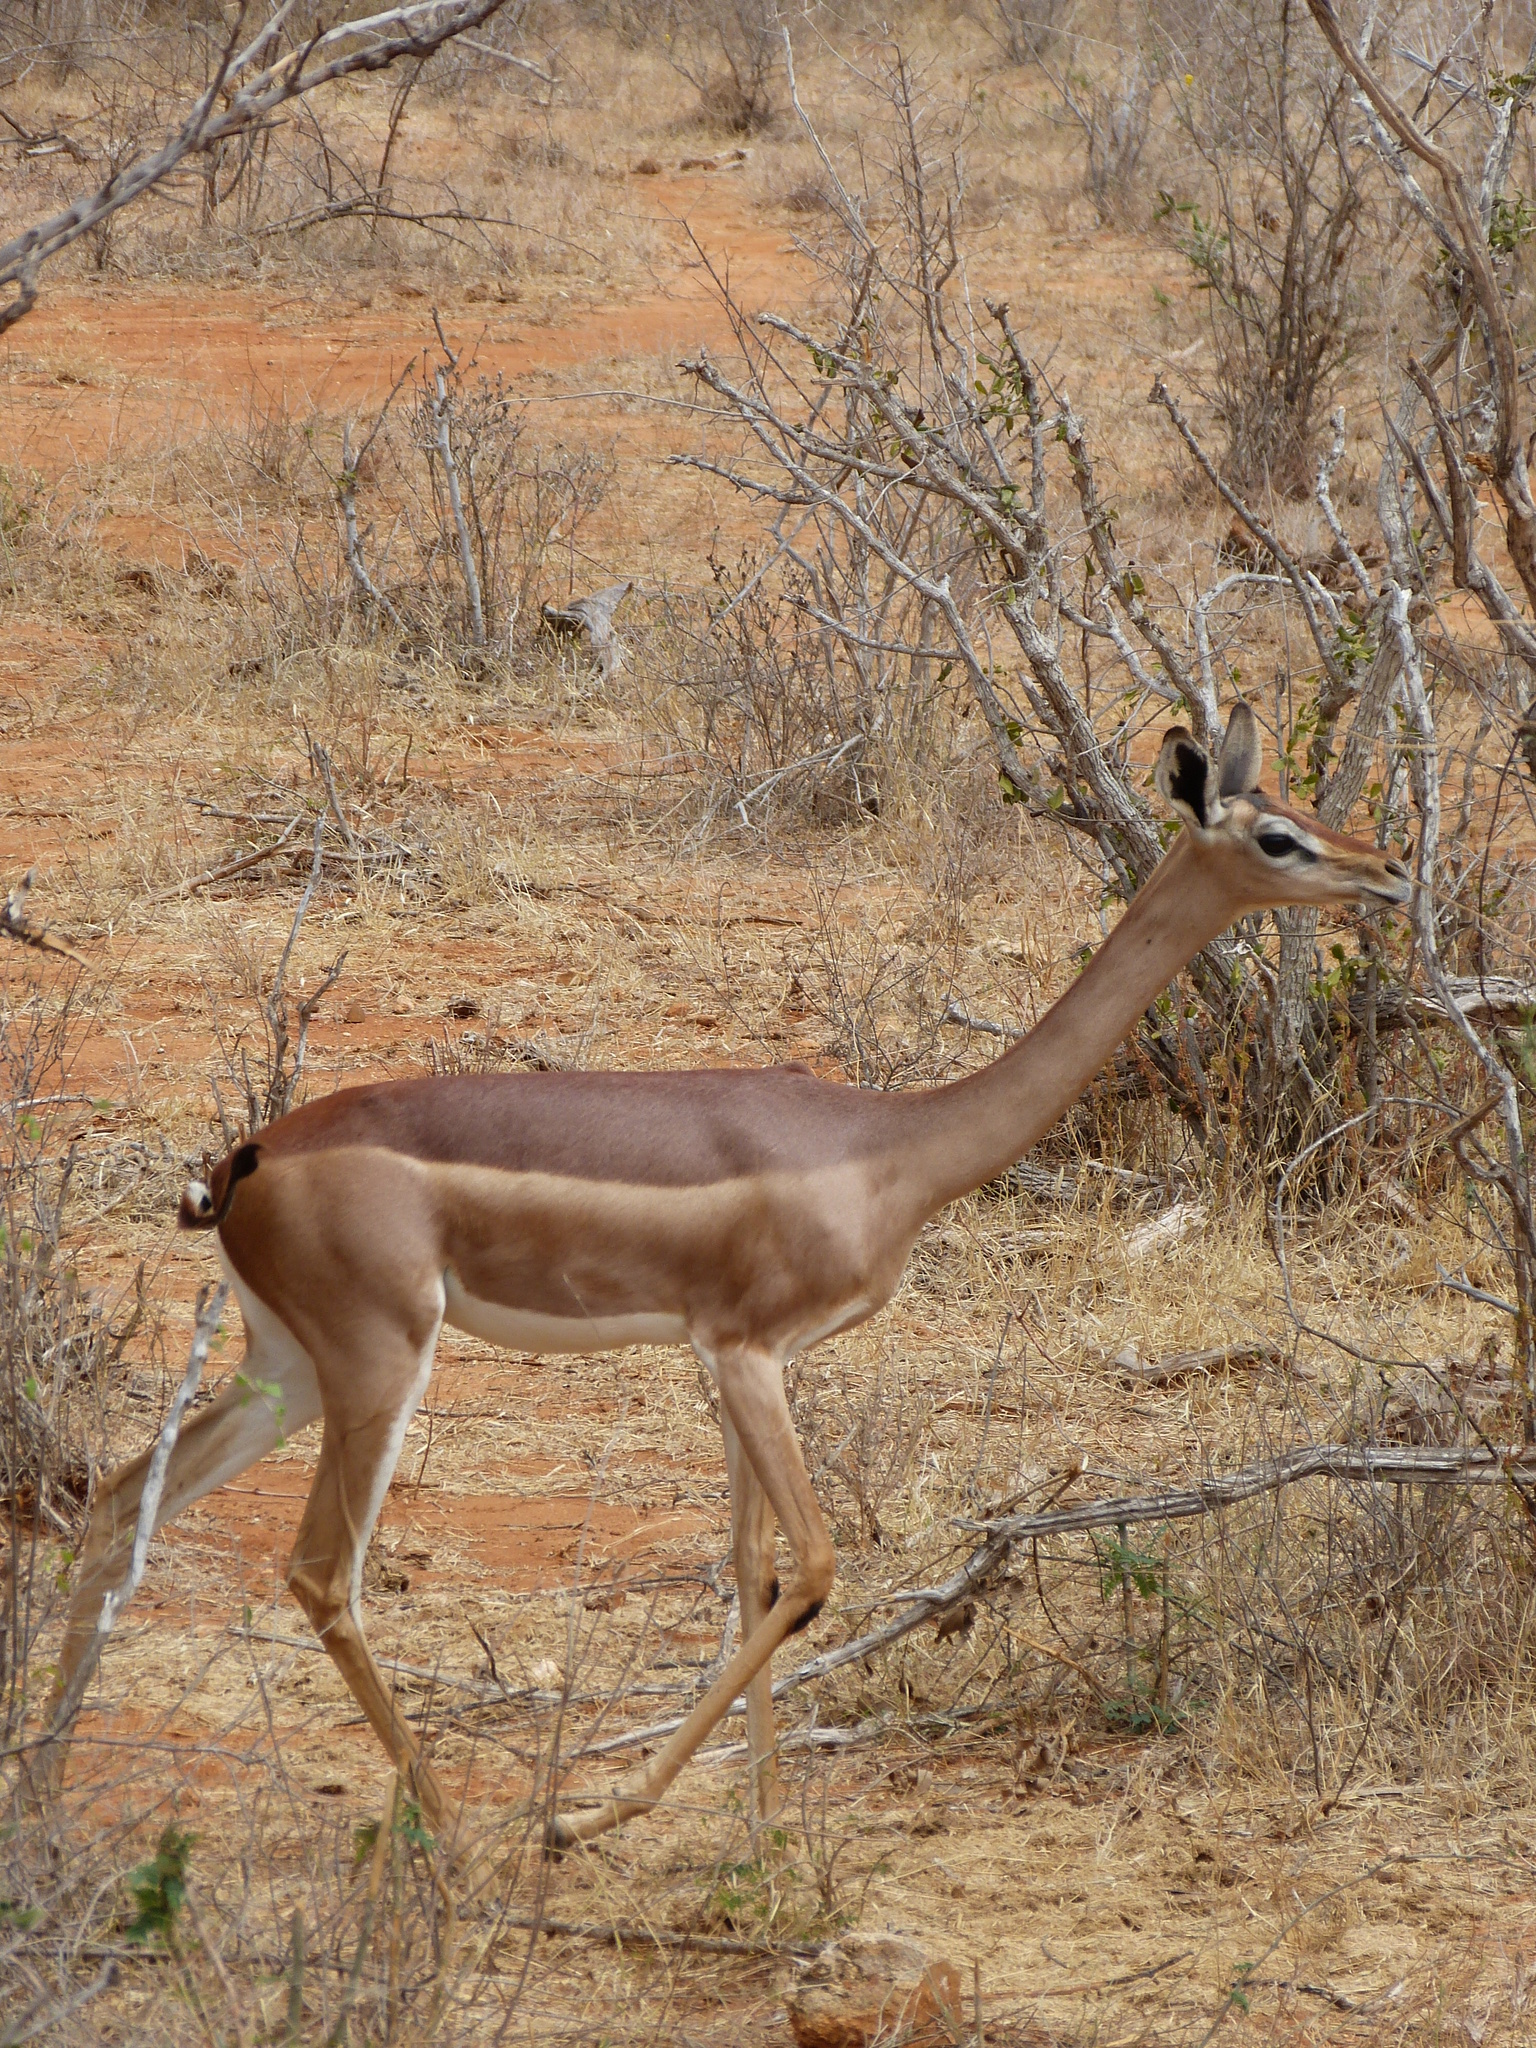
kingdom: Animalia
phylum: Chordata
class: Mammalia
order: Artiodactyla
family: Bovidae
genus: Litocranius
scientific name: Litocranius walleri
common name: Gerenuk
